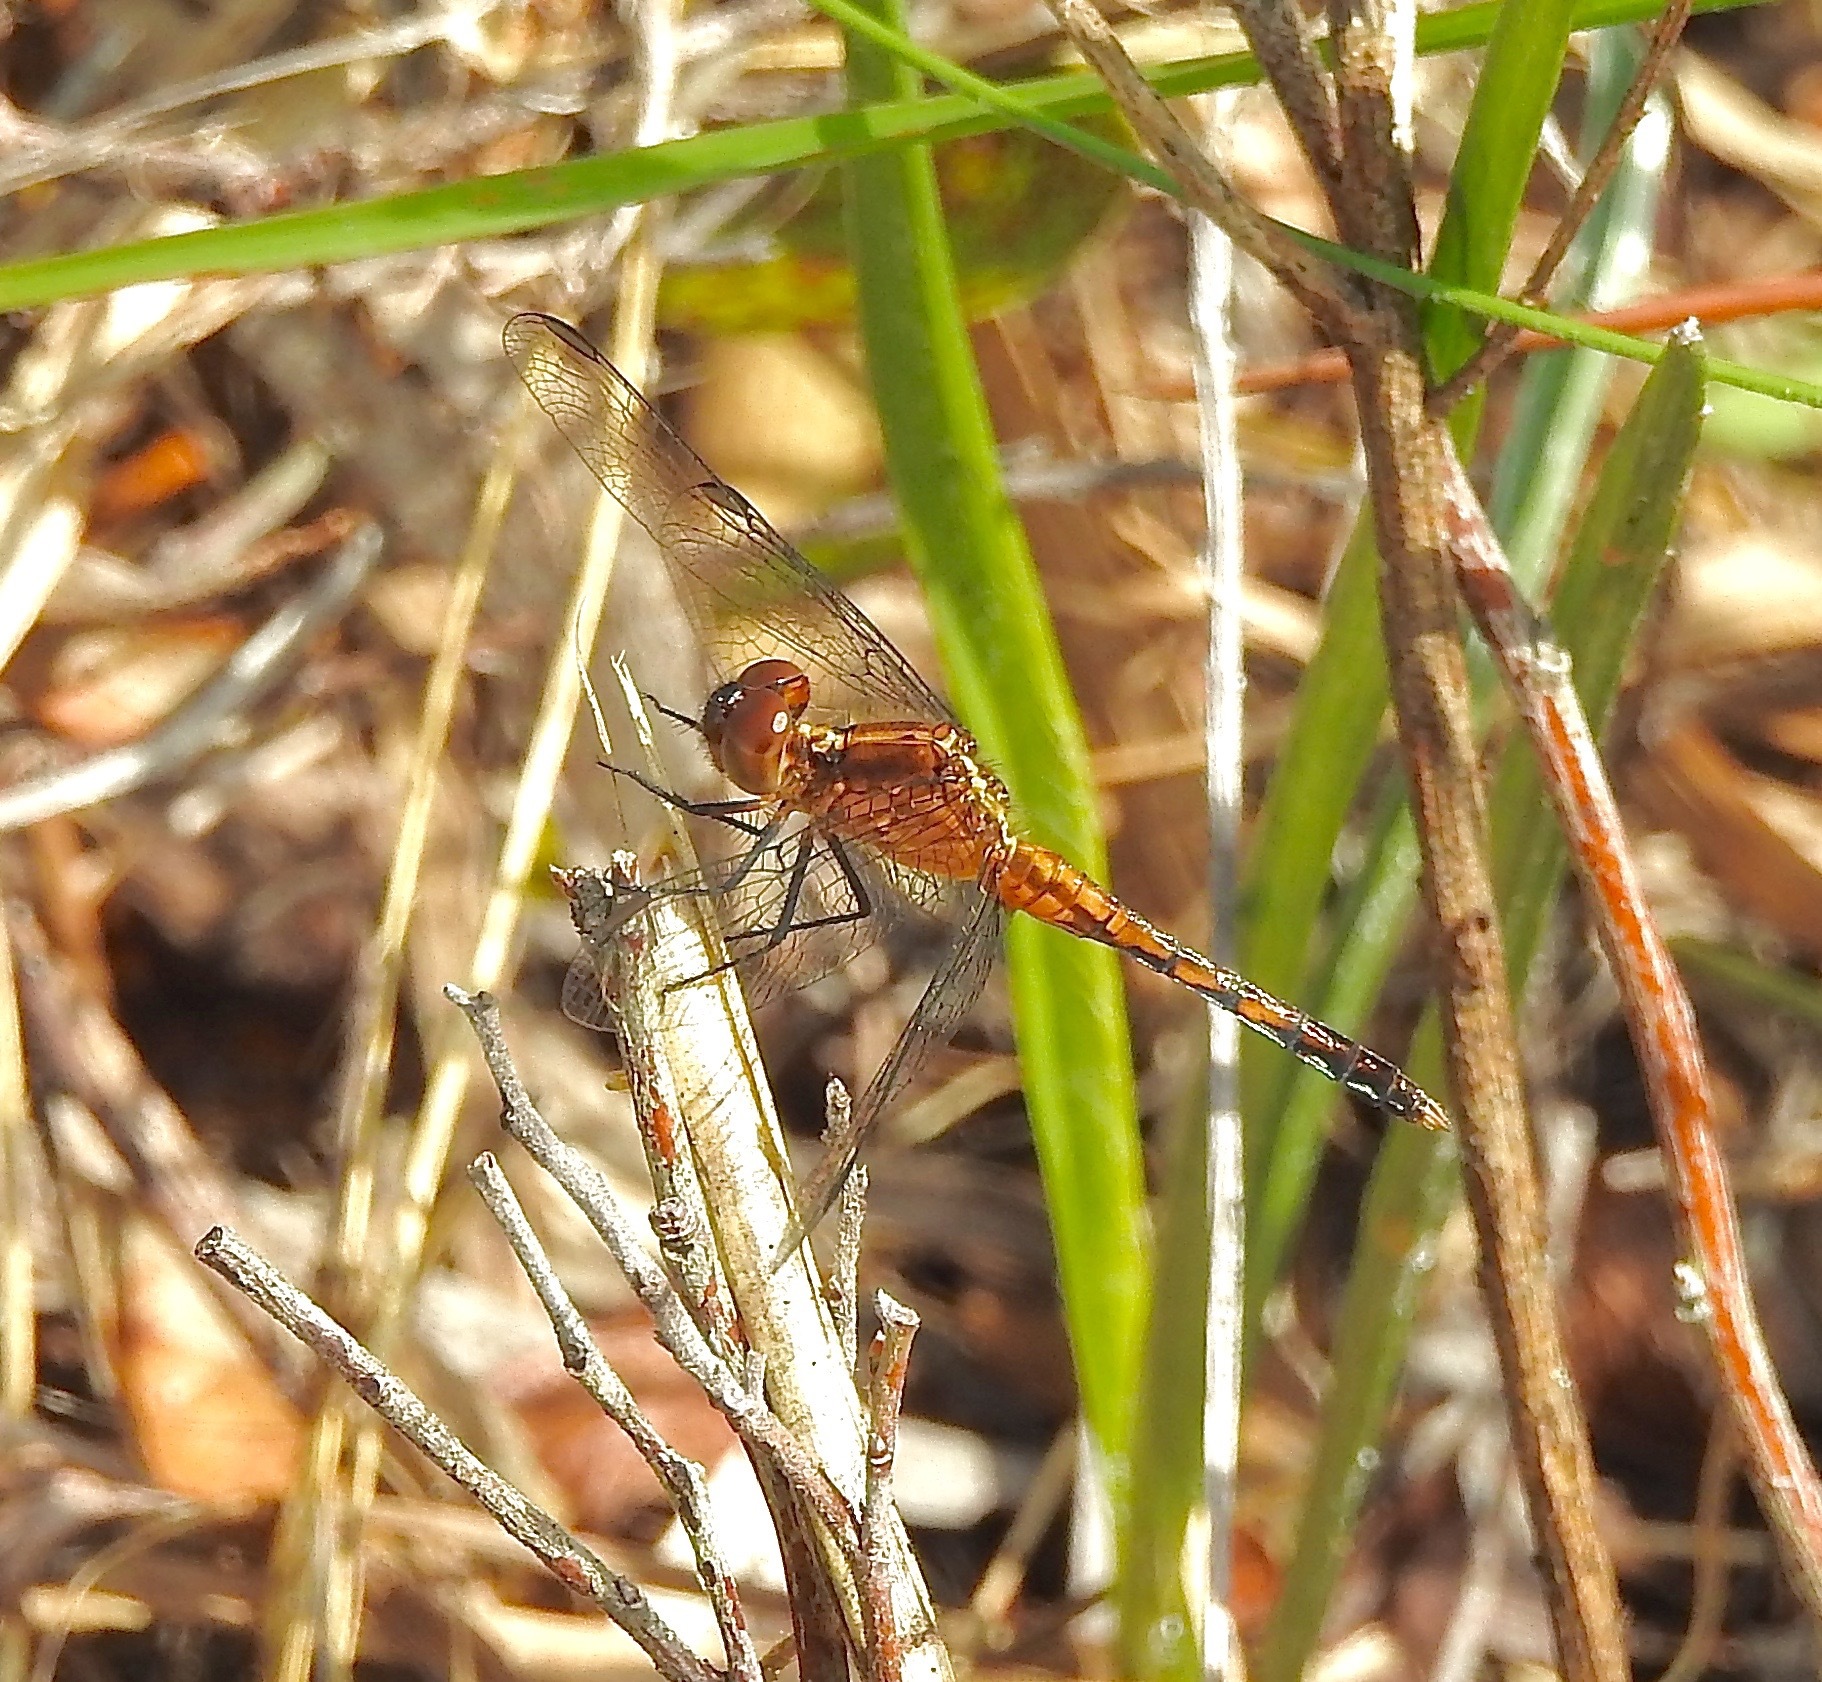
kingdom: Animalia
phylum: Arthropoda
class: Insecta
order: Odonata
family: Libellulidae
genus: Erythrodiplax
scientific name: Erythrodiplax minuscula
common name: Little blue dragonlet
